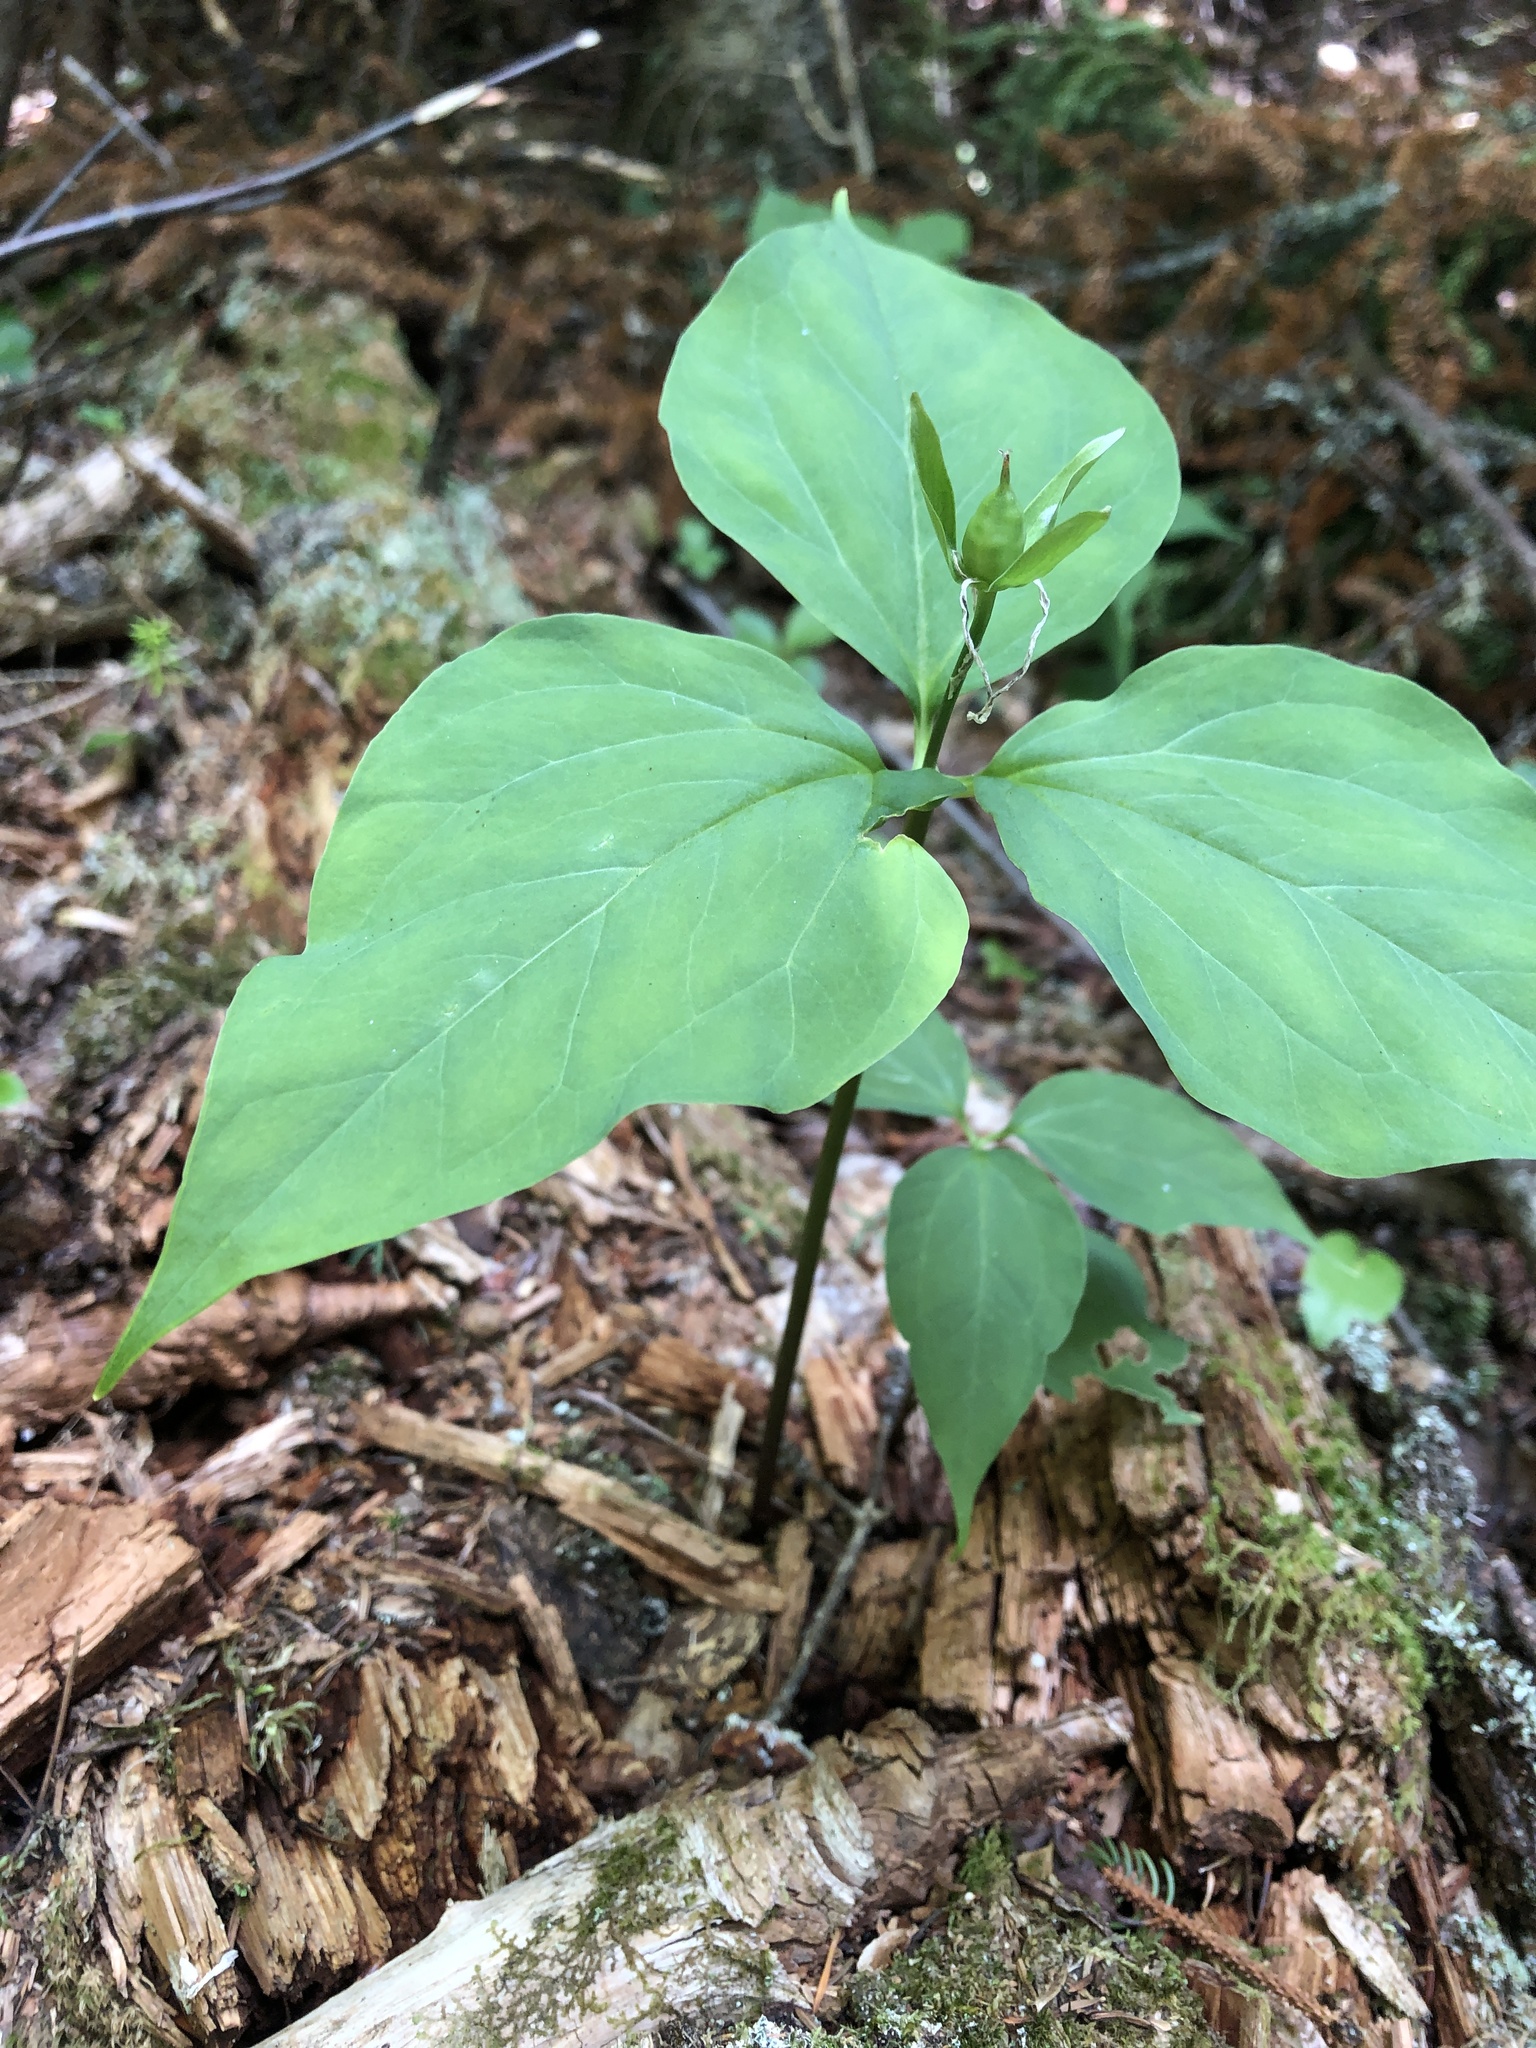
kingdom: Plantae
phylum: Tracheophyta
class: Liliopsida
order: Liliales
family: Melanthiaceae
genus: Trillium
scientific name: Trillium undulatum
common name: Paint trillium
